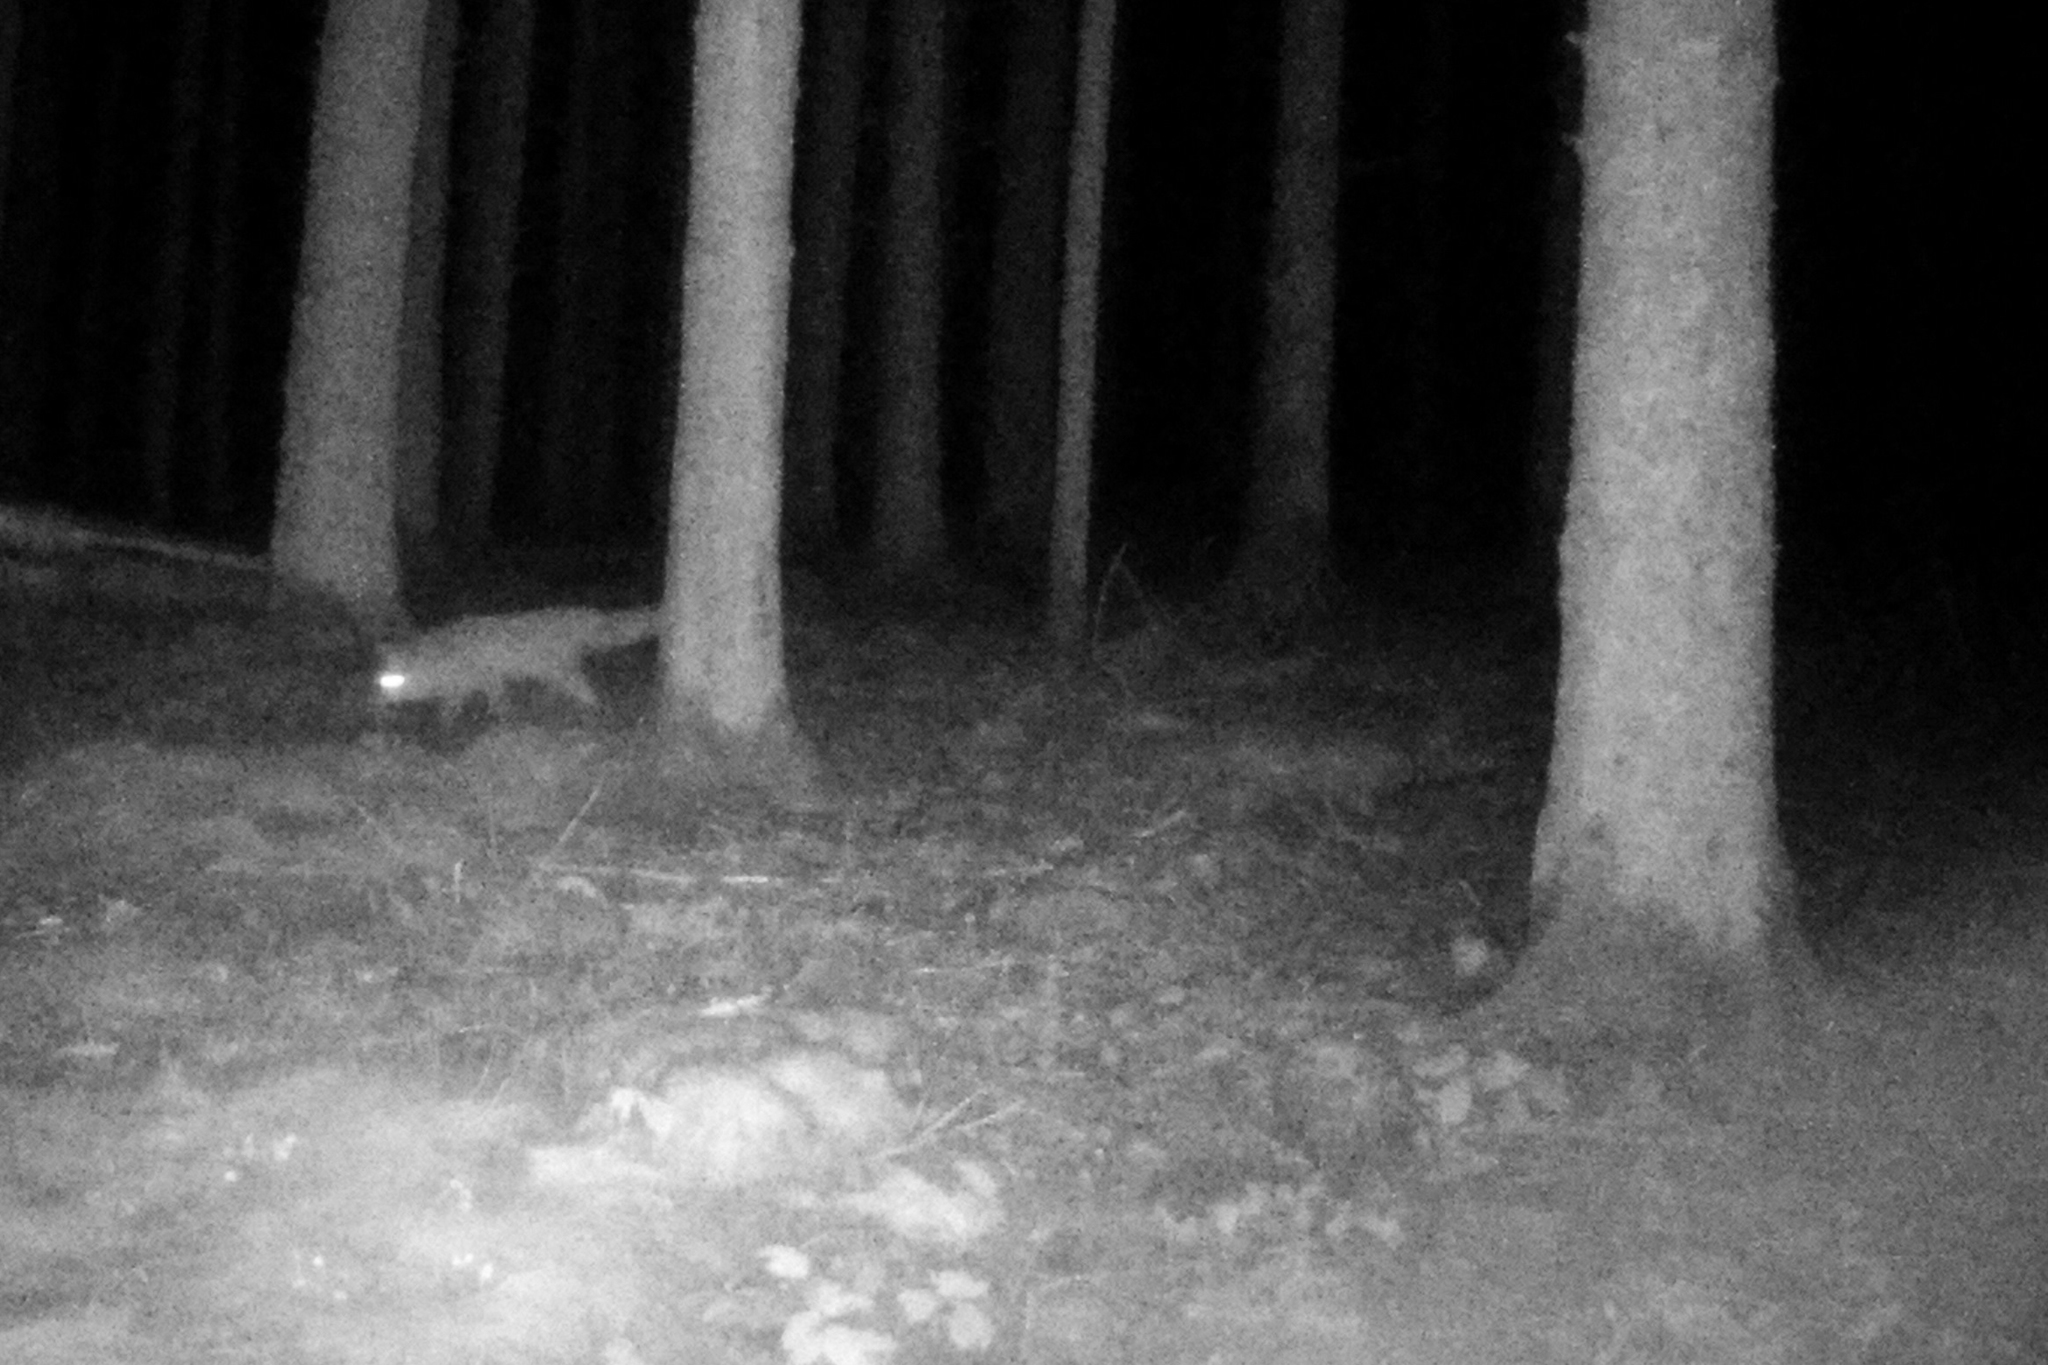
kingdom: Animalia
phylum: Chordata
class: Mammalia
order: Carnivora
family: Canidae
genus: Vulpes
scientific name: Vulpes vulpes
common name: Red fox
